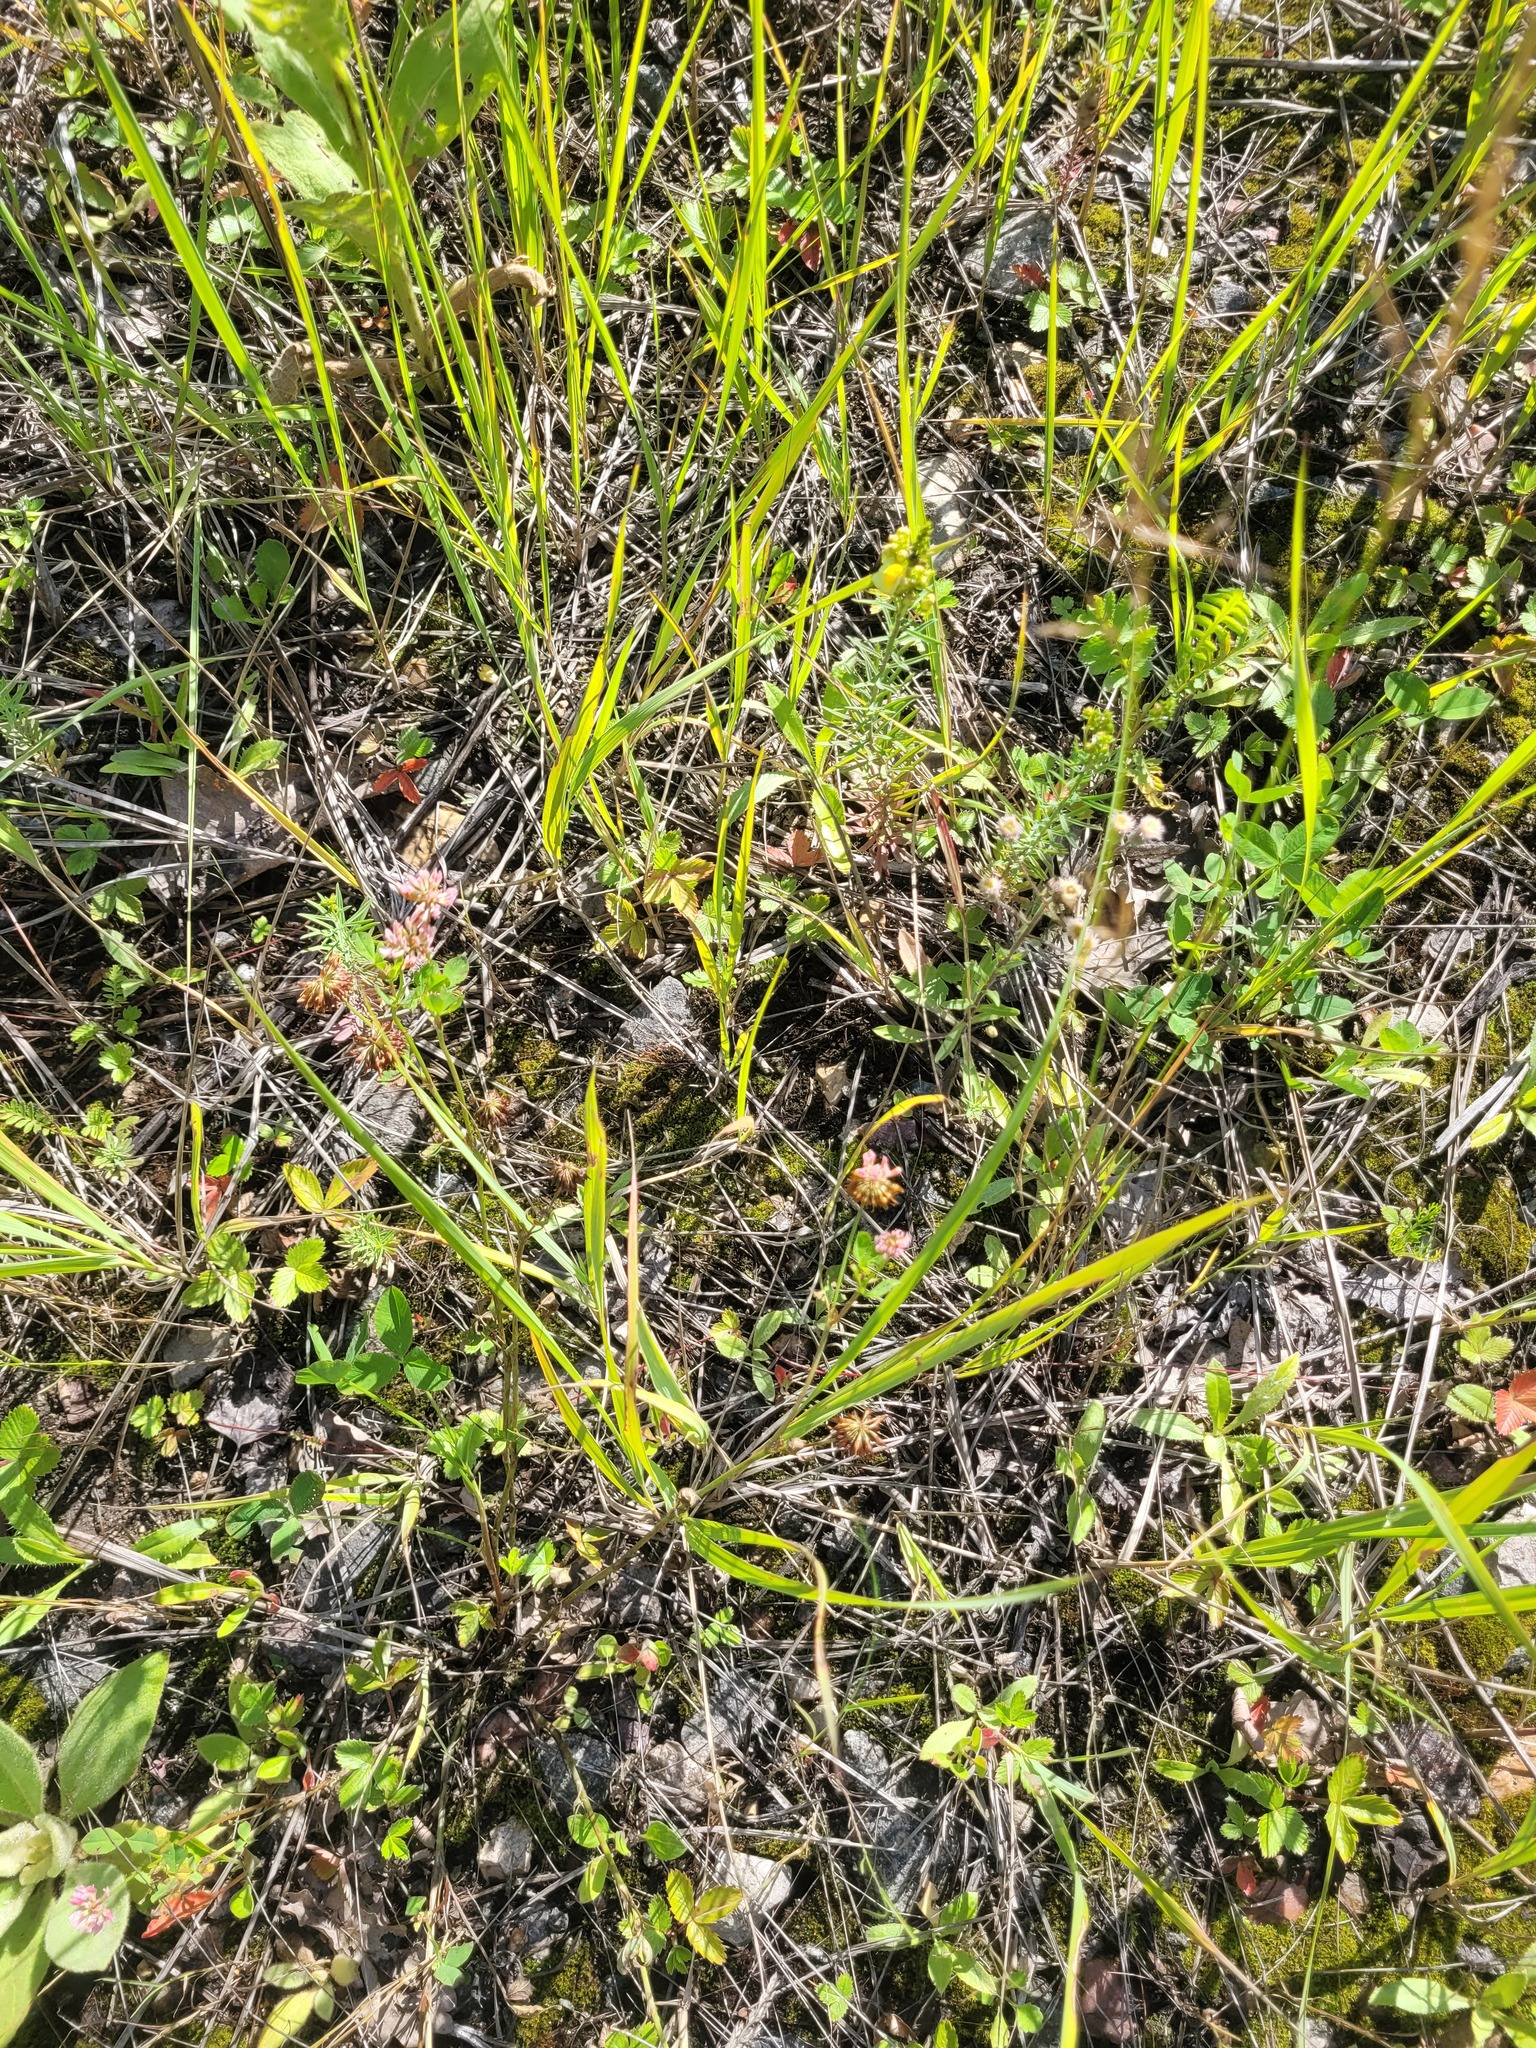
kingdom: Plantae
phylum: Tracheophyta
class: Magnoliopsida
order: Fabales
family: Fabaceae
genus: Trifolium
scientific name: Trifolium hybridum
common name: Alsike clover
